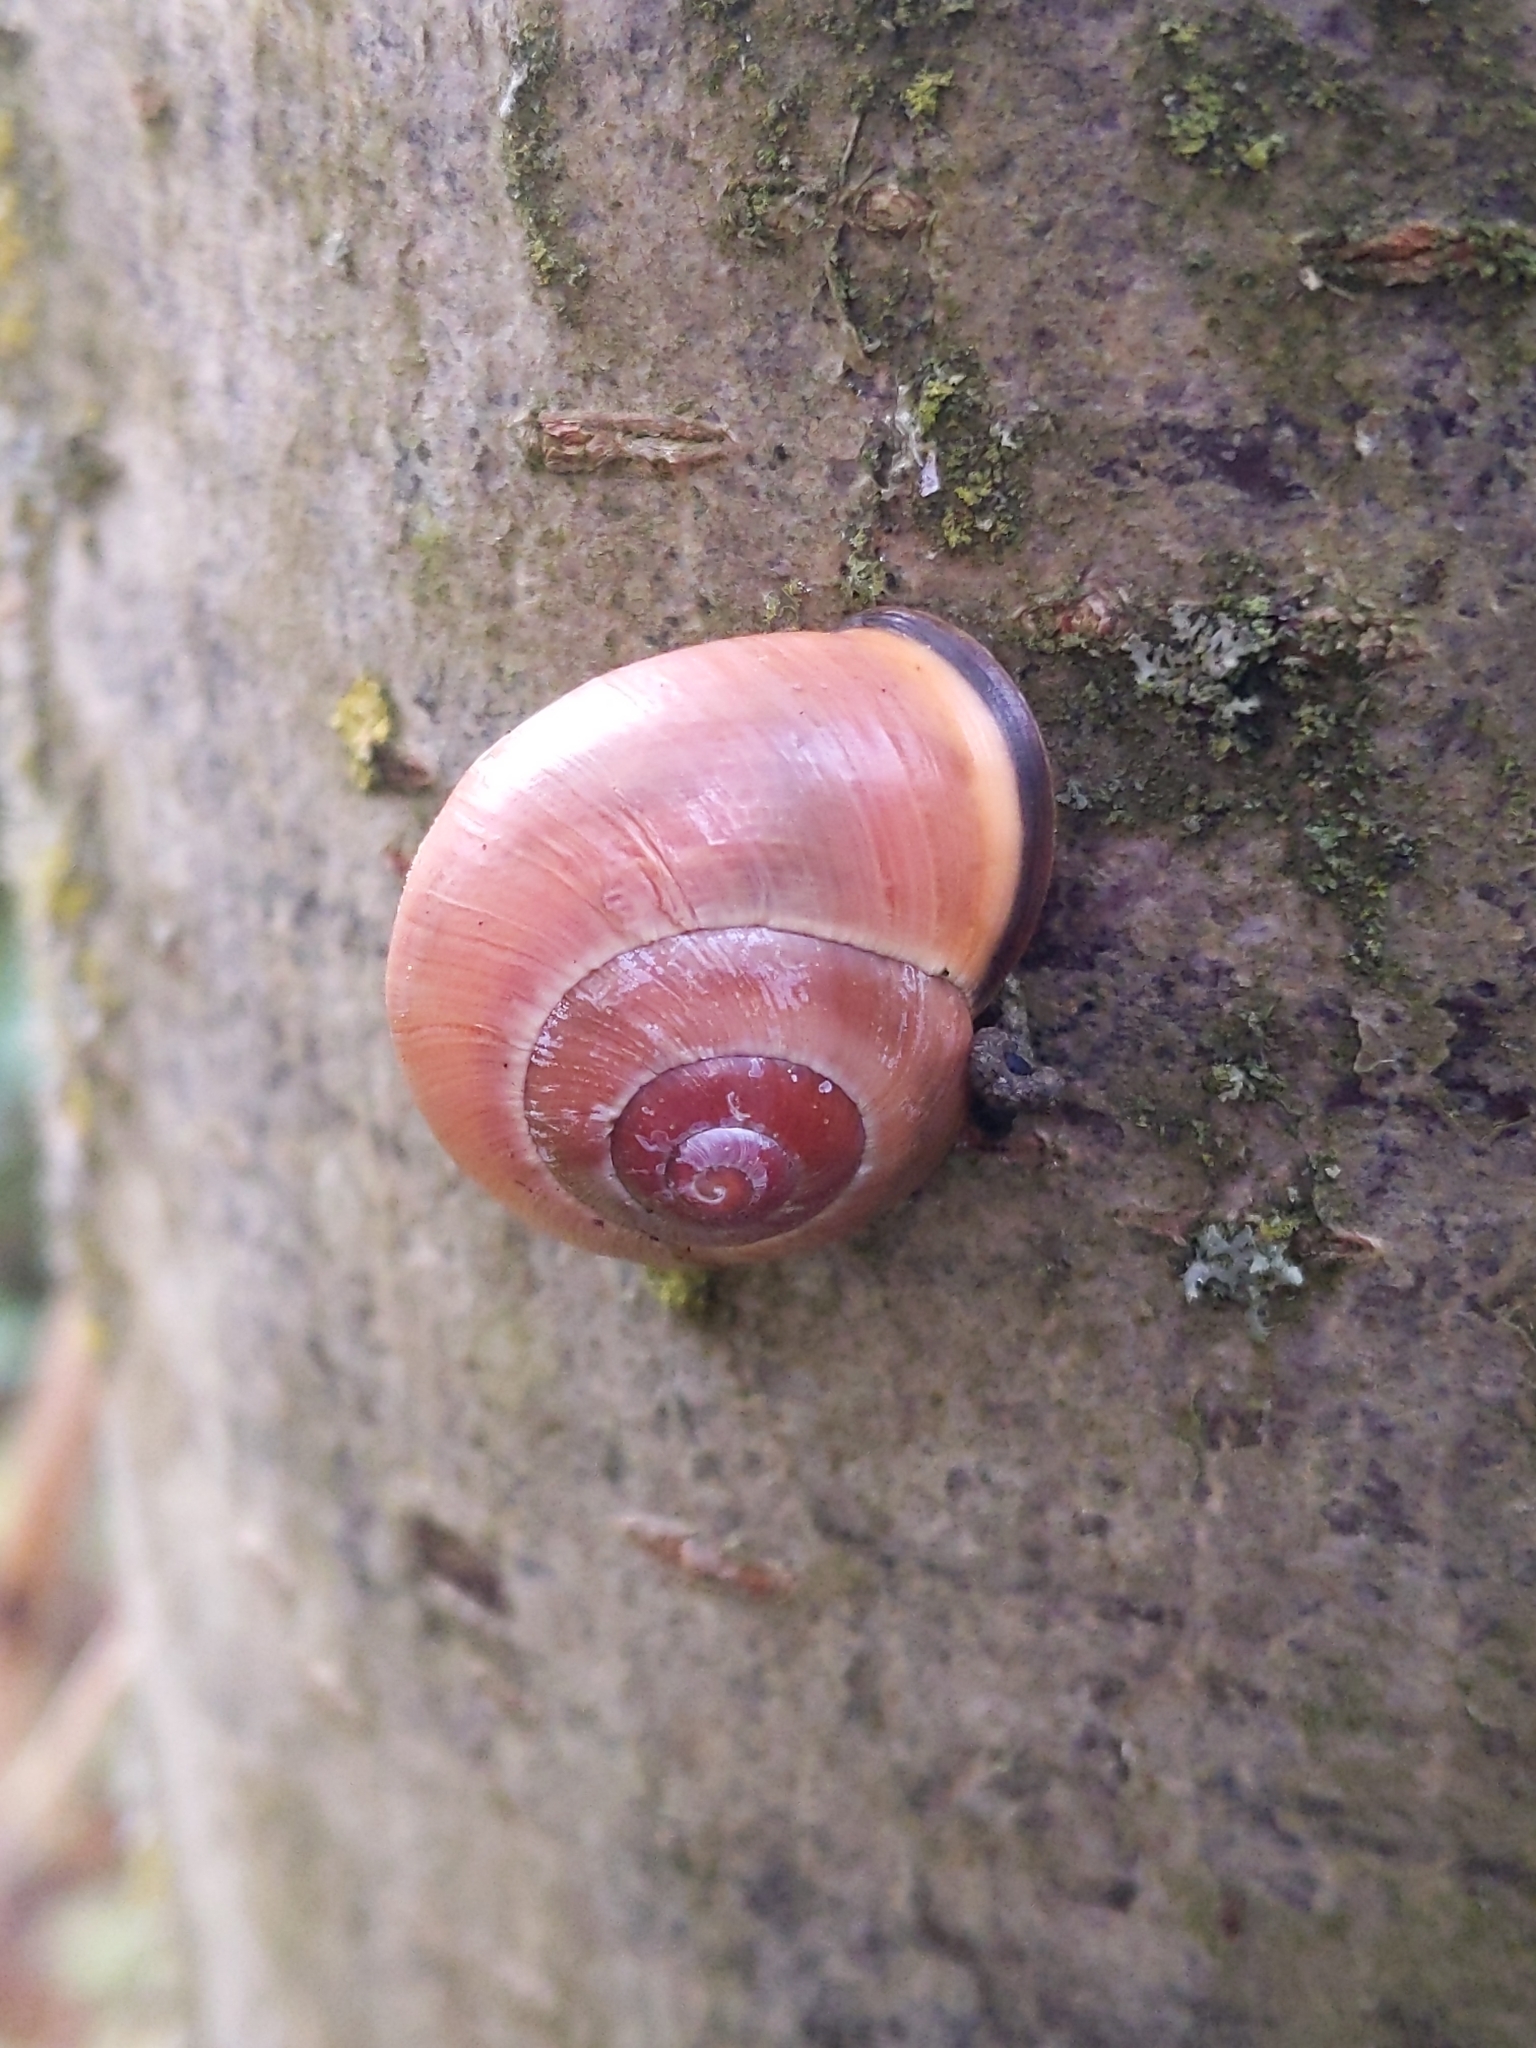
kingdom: Animalia
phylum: Mollusca
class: Gastropoda
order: Stylommatophora
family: Helicidae
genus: Cepaea
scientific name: Cepaea nemoralis
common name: Grovesnail
